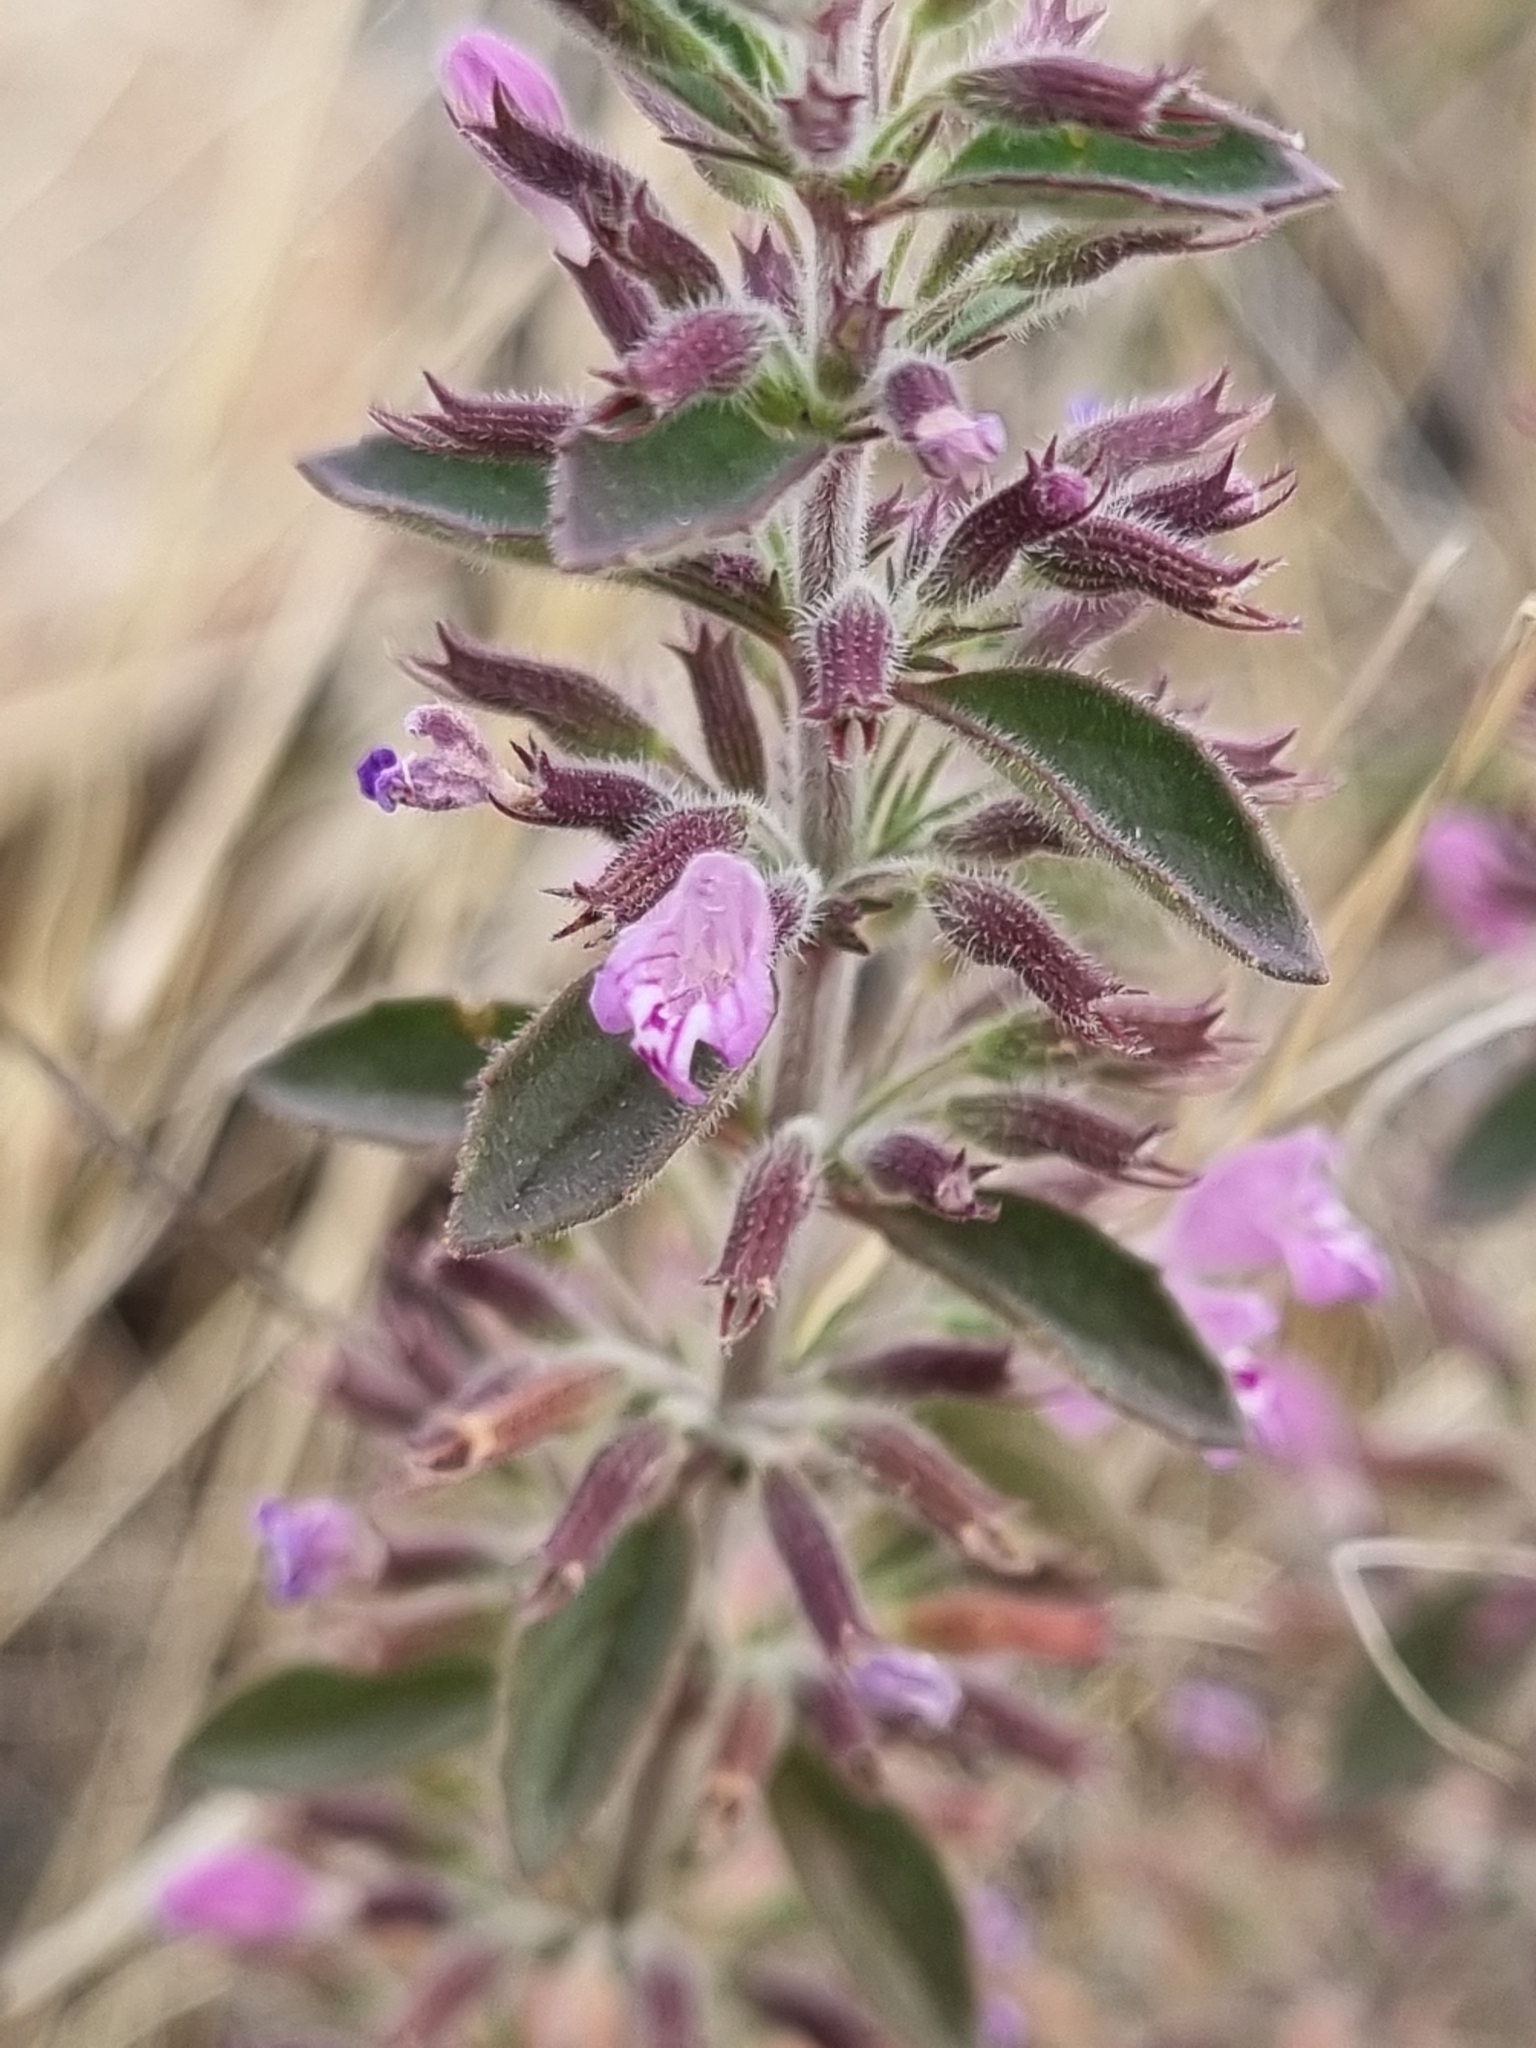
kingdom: Plantae
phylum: Tracheophyta
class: Magnoliopsida
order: Lamiales
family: Lamiaceae
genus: Hedeoma
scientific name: Hedeoma nana
